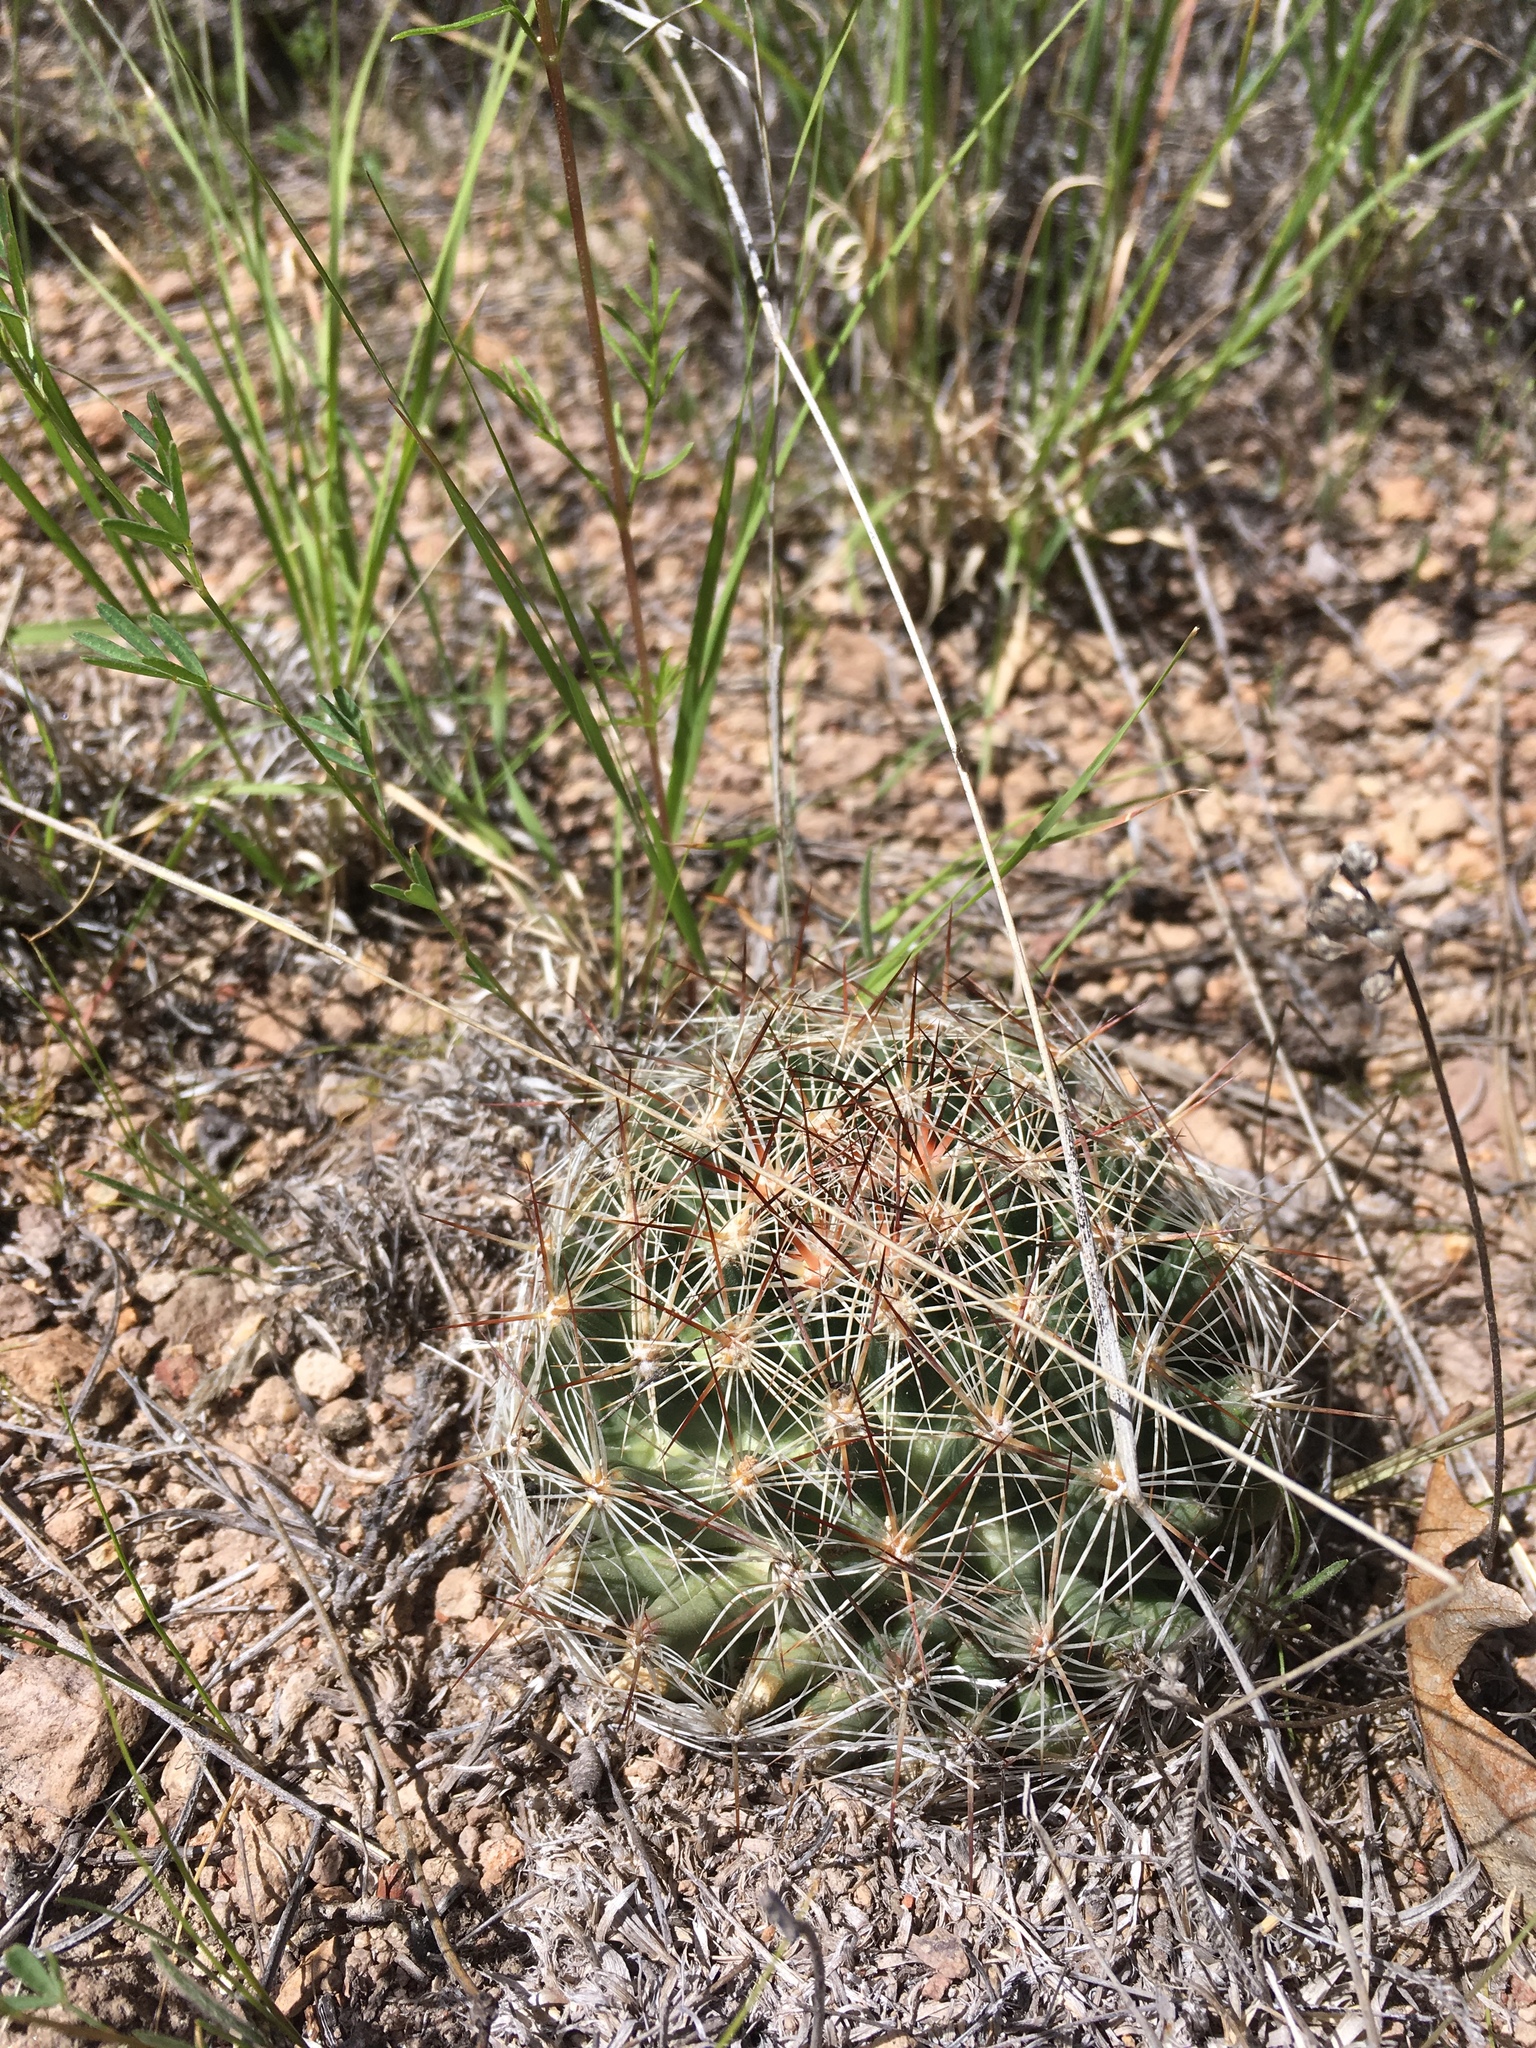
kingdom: Plantae
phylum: Tracheophyta
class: Magnoliopsida
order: Caryophyllales
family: Cactaceae
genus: Pelecyphora
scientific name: Pelecyphora vivipara
